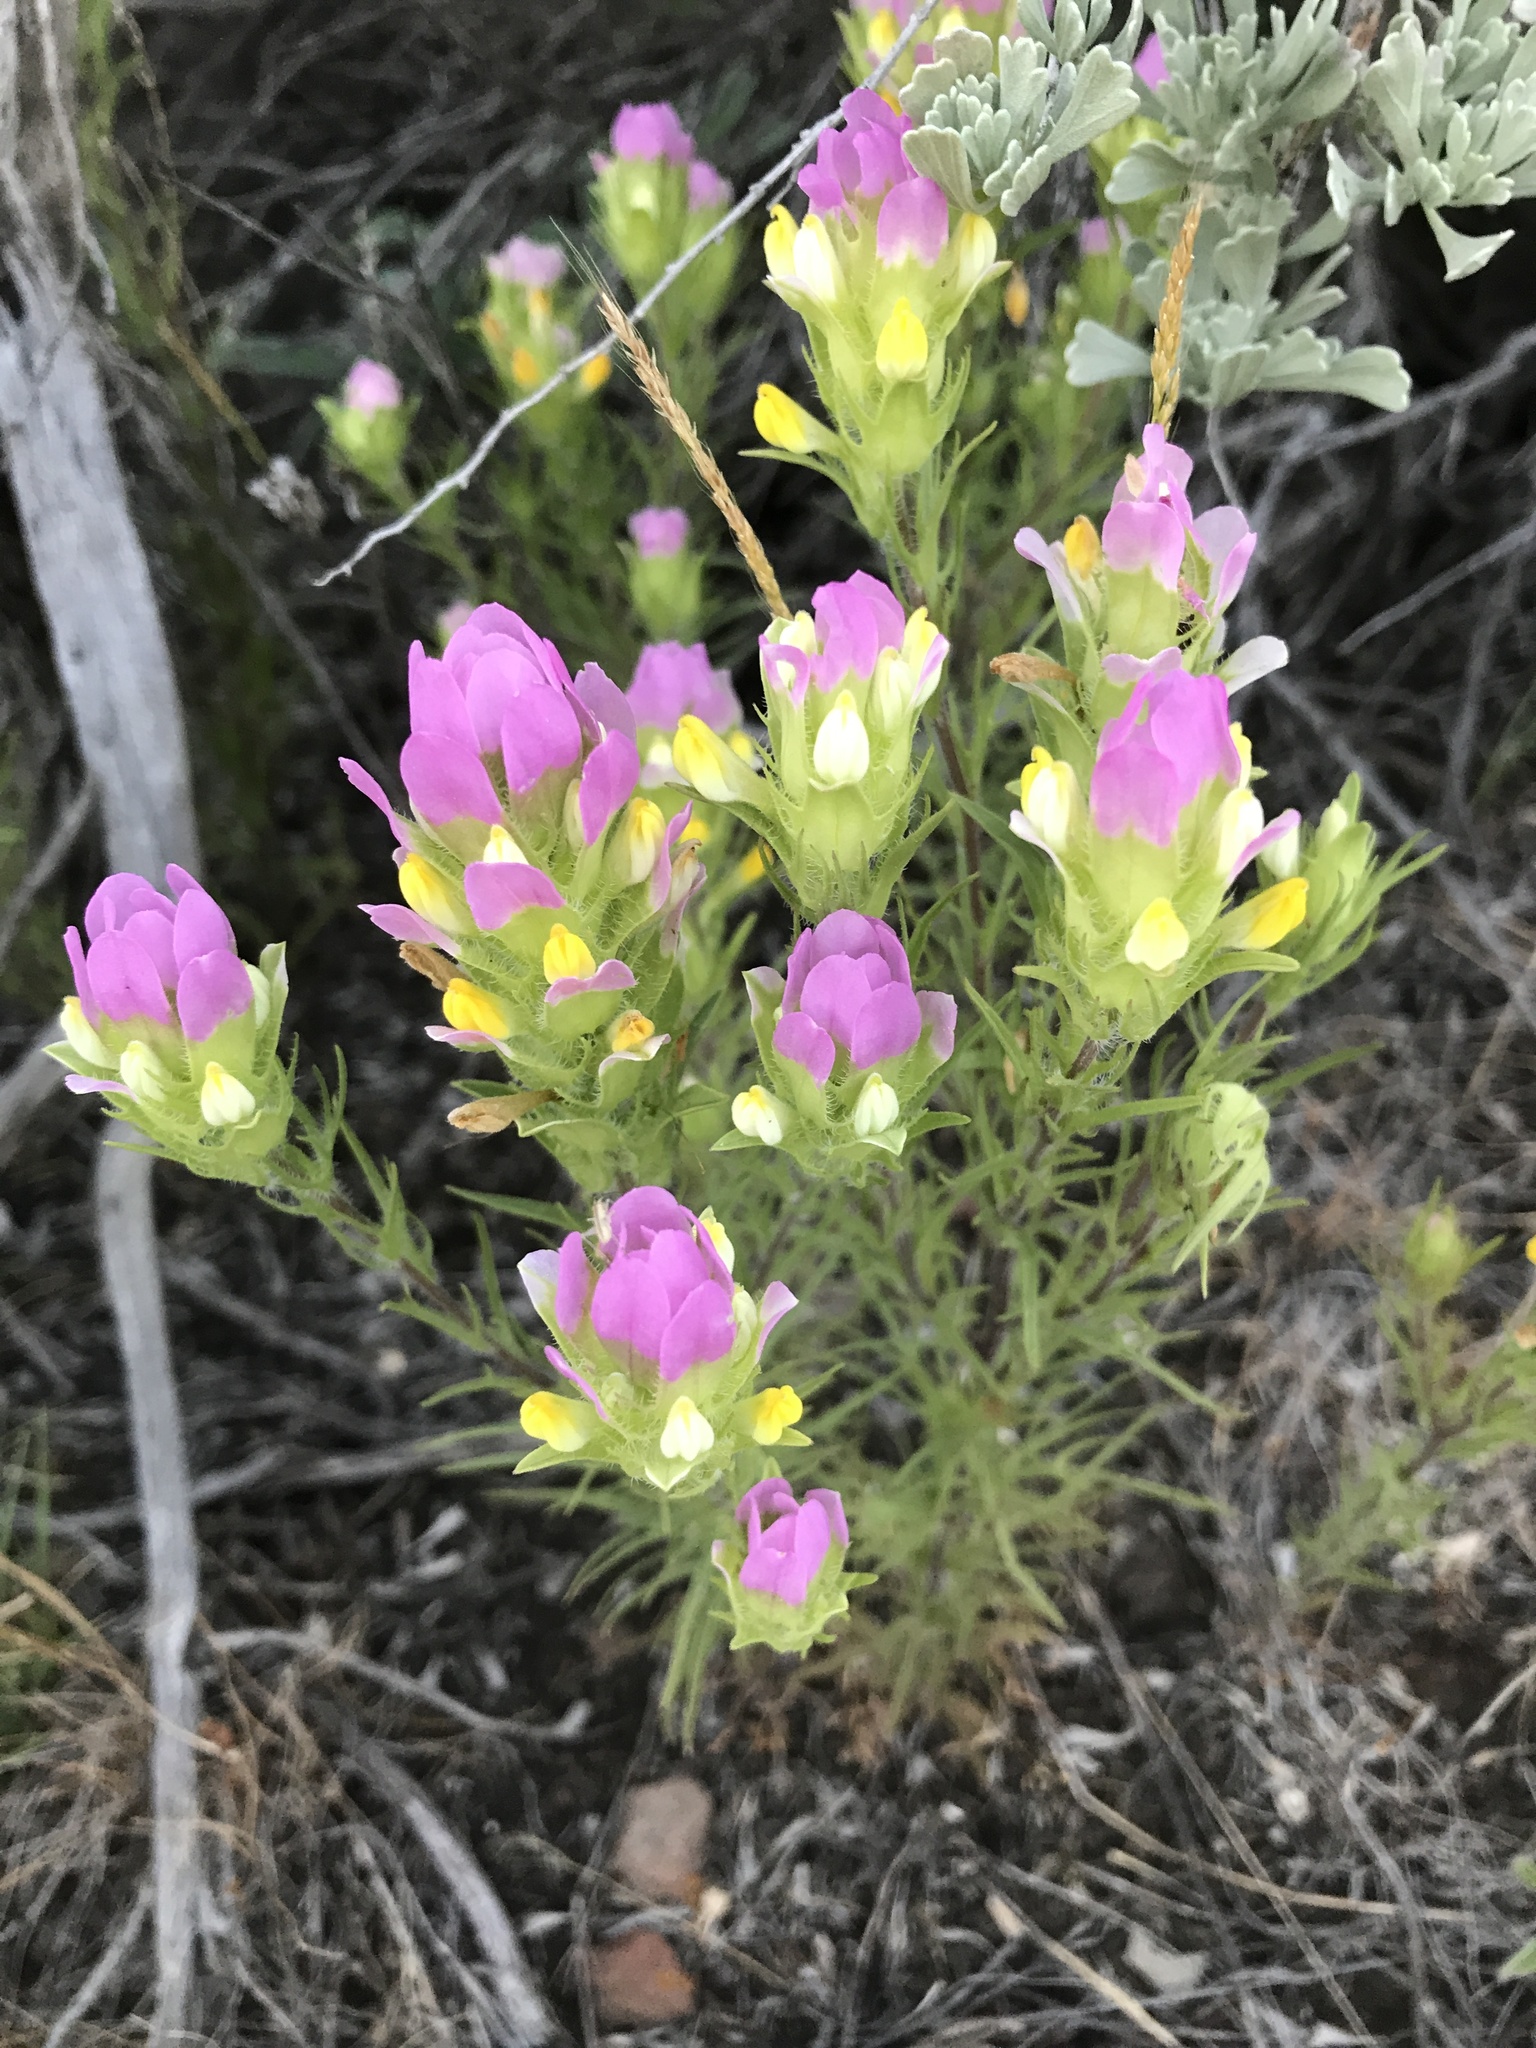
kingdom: Plantae
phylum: Tracheophyta
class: Magnoliopsida
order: Lamiales
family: Orobanchaceae
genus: Orthocarpus
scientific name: Orthocarpus tenuifolius
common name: Thin-leaved owl's-clover
